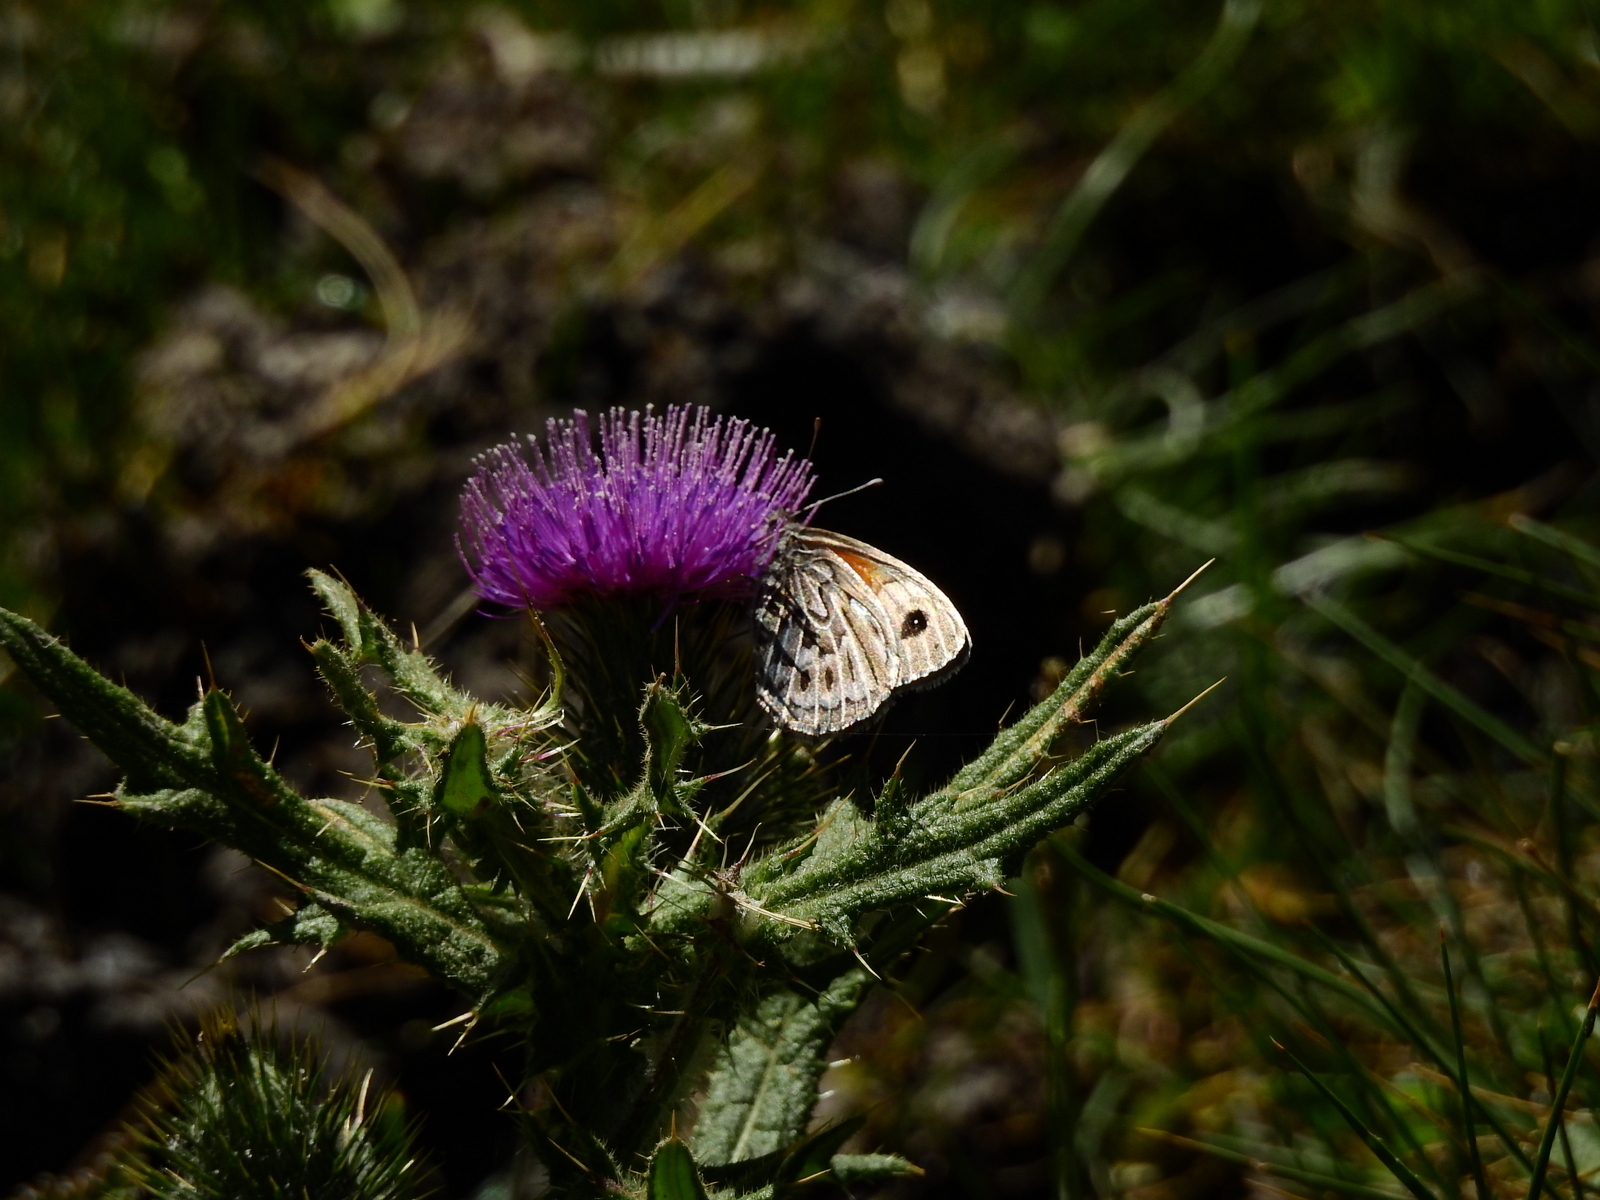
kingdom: Animalia
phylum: Arthropoda
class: Insecta
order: Lepidoptera
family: Nymphalidae
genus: Argyrophorus
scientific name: Argyrophorus argenteus
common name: Silver satyr
